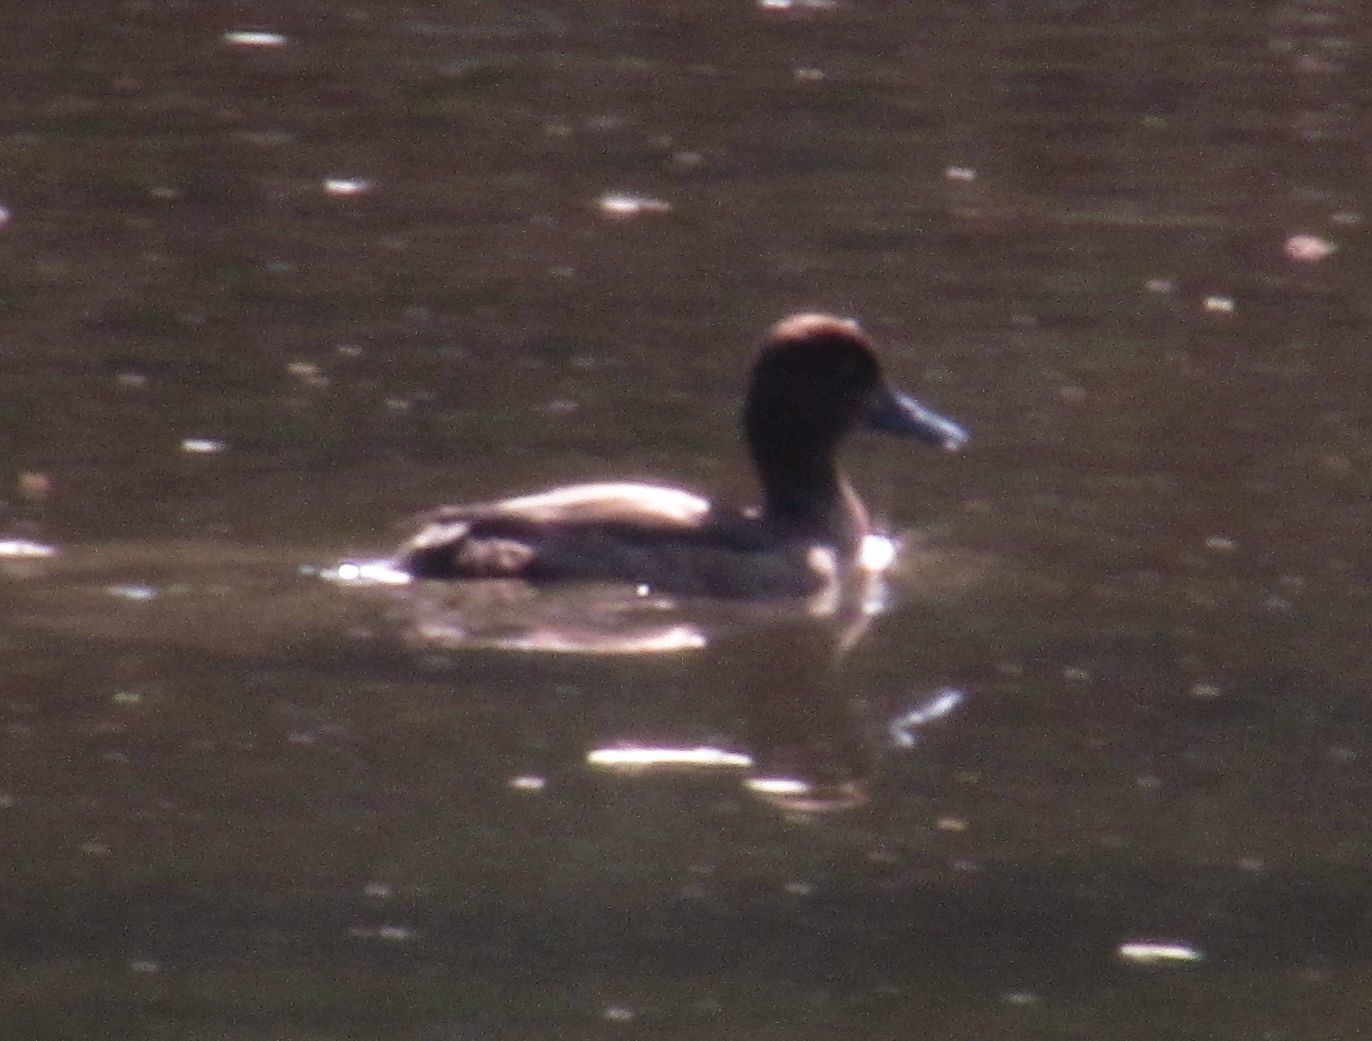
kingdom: Animalia
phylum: Chordata
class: Aves
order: Anseriformes
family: Anatidae
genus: Aythya
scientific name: Aythya fuligula
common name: Tufted duck
